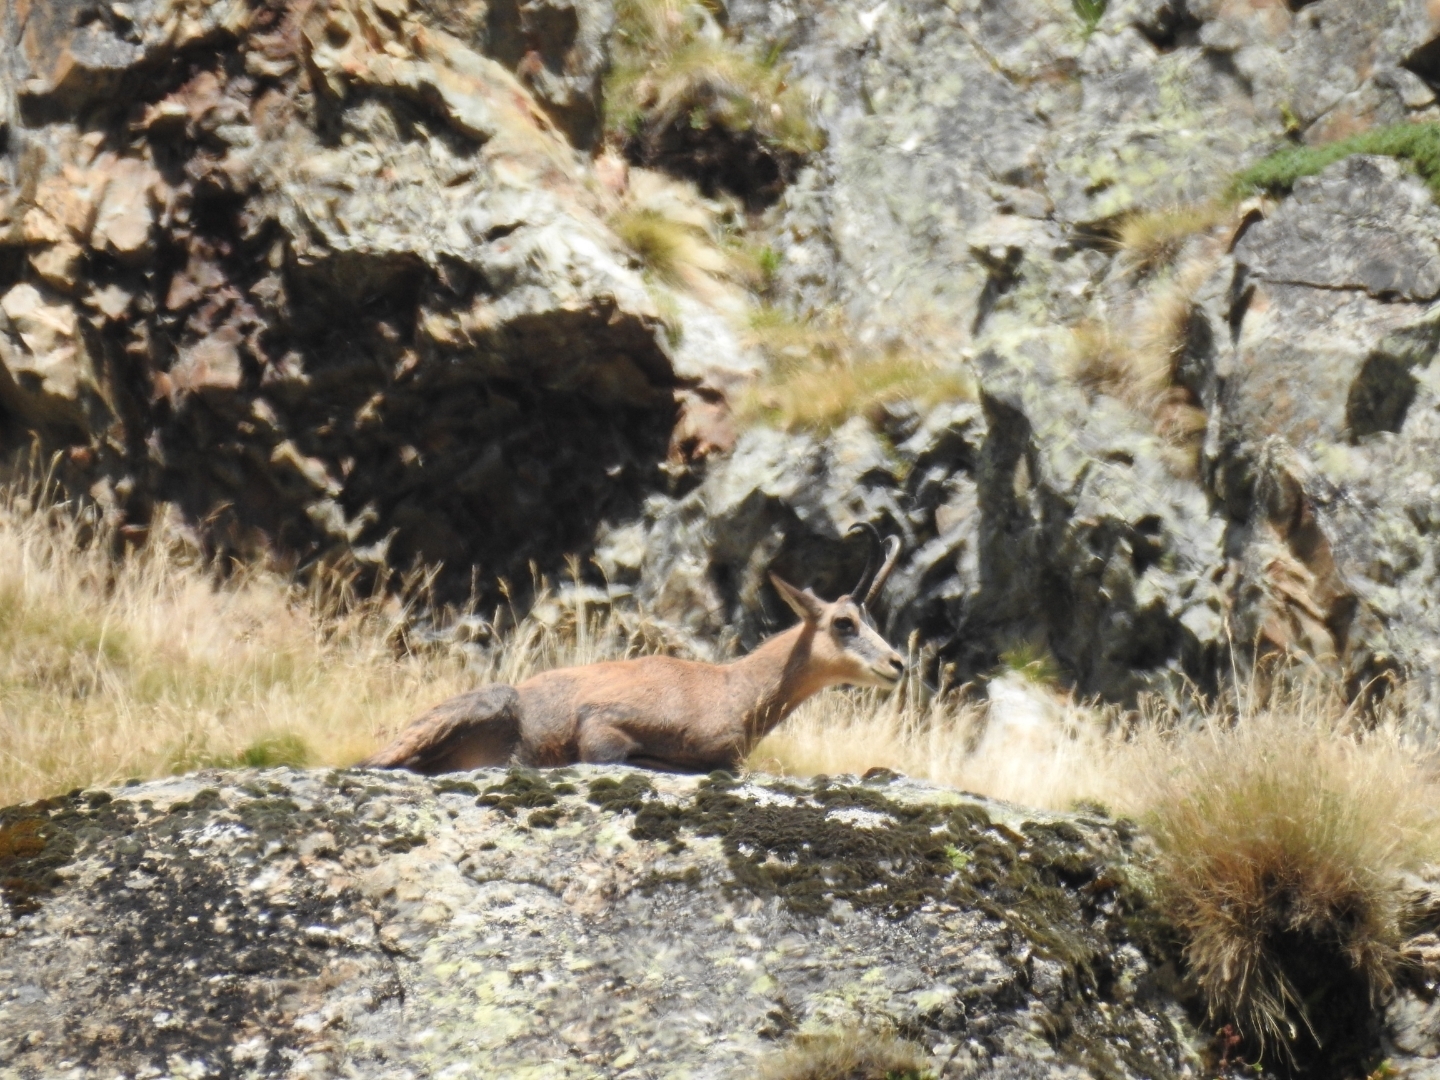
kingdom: Animalia
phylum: Chordata
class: Mammalia
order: Artiodactyla
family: Bovidae
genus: Rupicapra
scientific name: Rupicapra rupicapra
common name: Chamois
